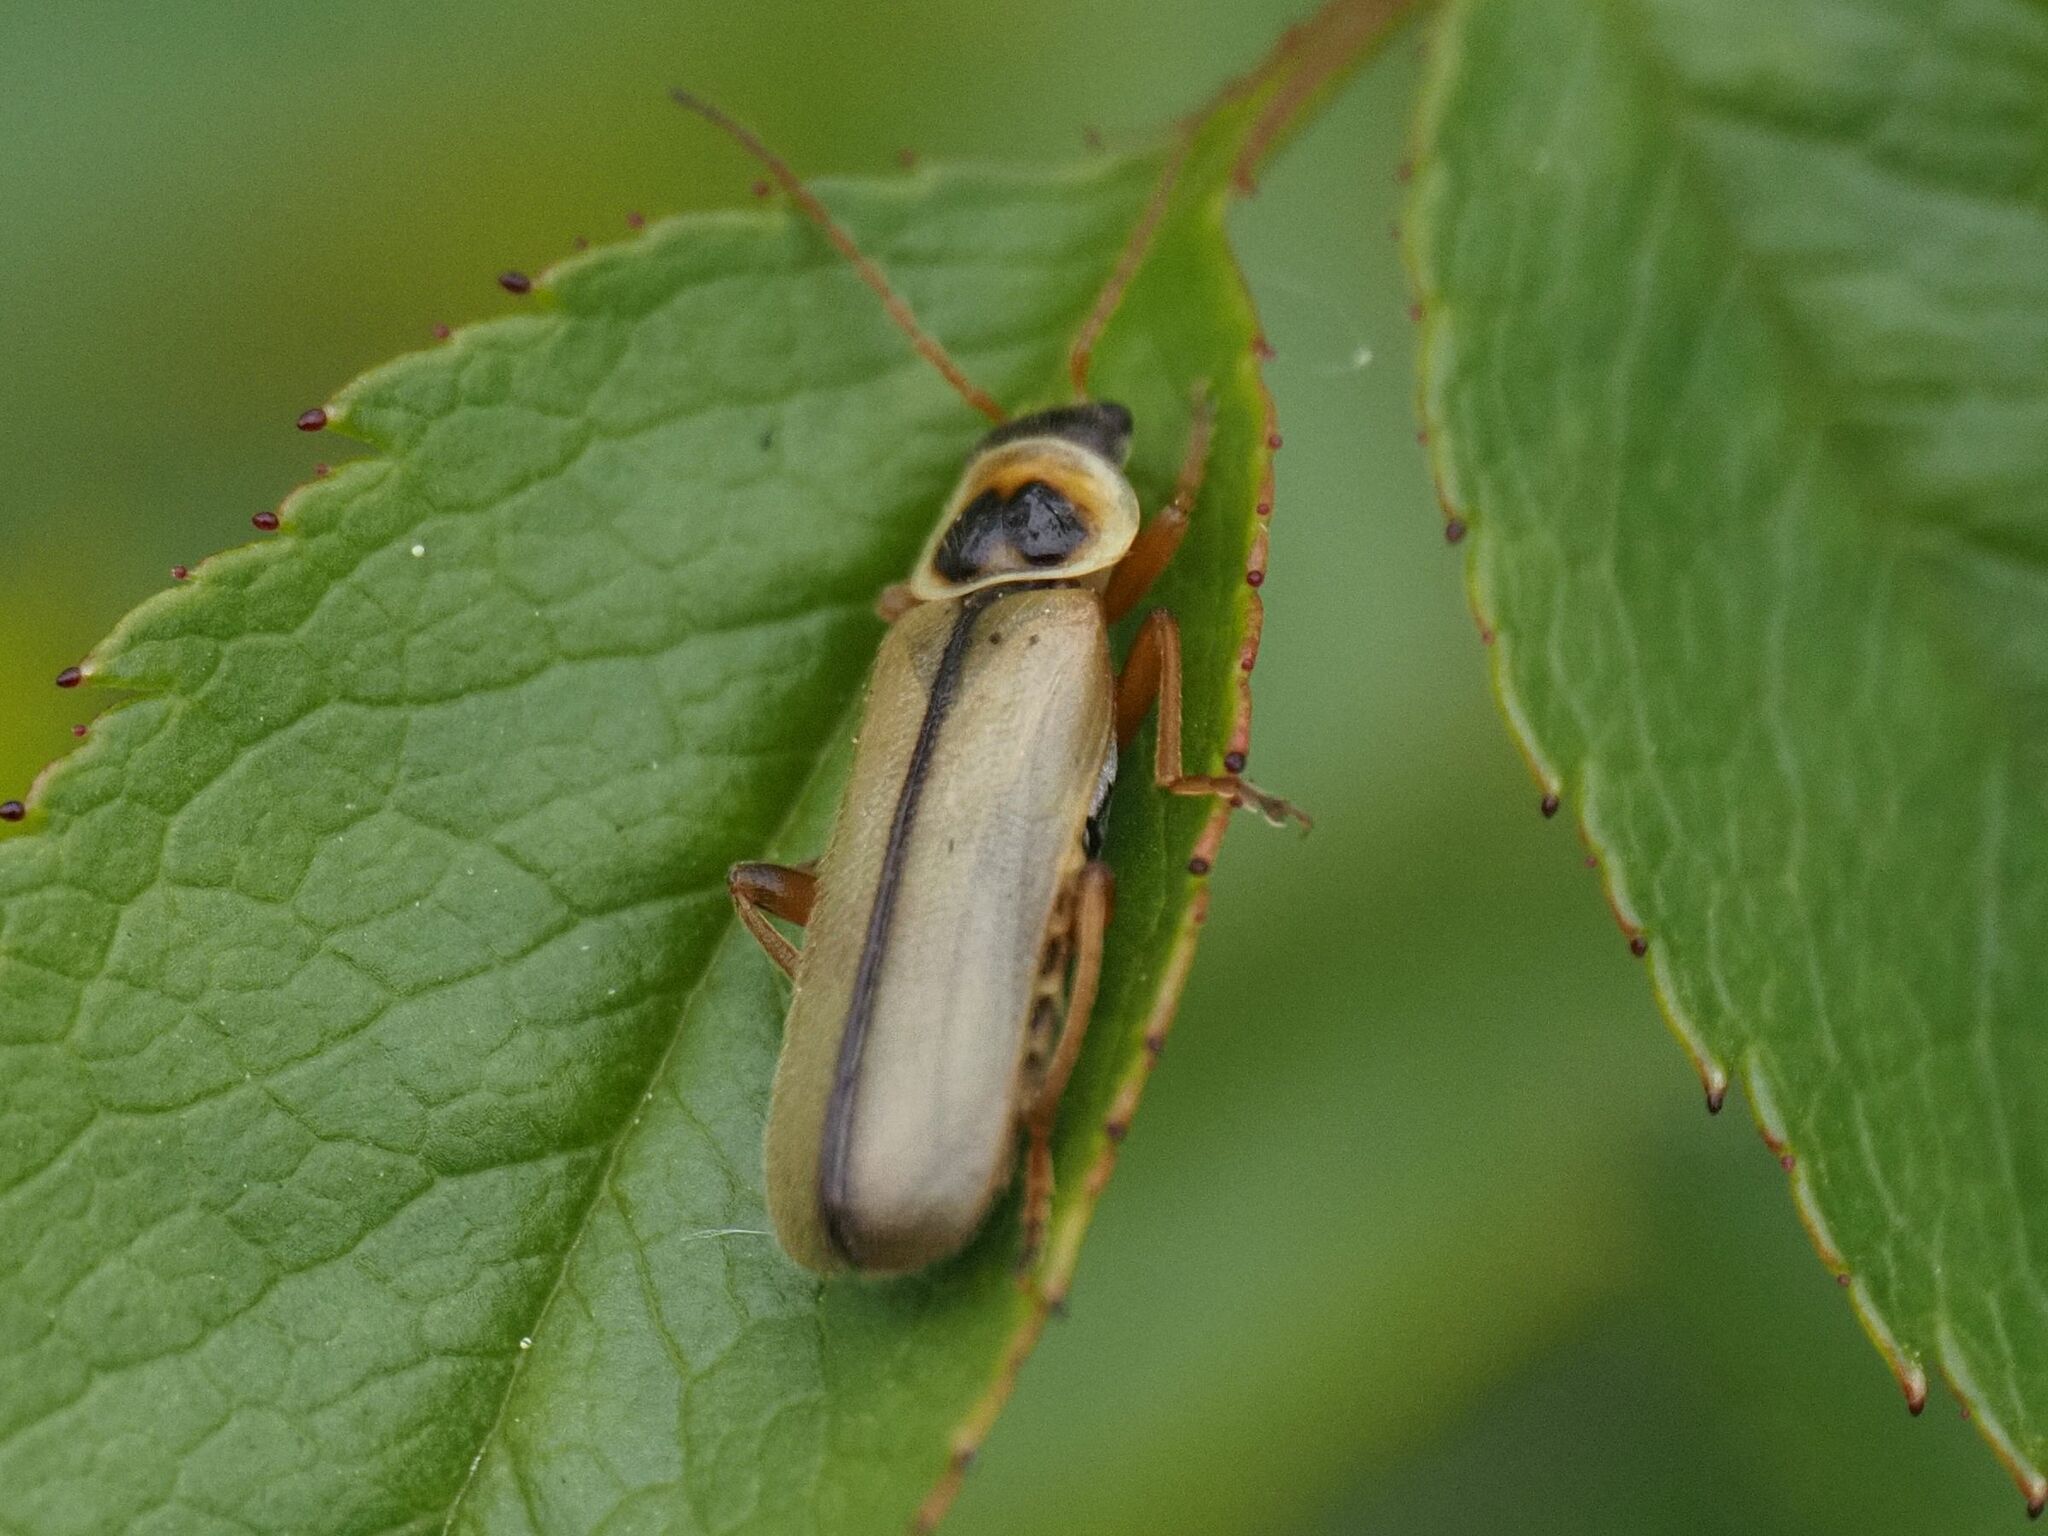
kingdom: Animalia
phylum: Arthropoda
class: Insecta
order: Coleoptera
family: Cantharidae
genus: Metacantharis
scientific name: Metacantharis clypeata
